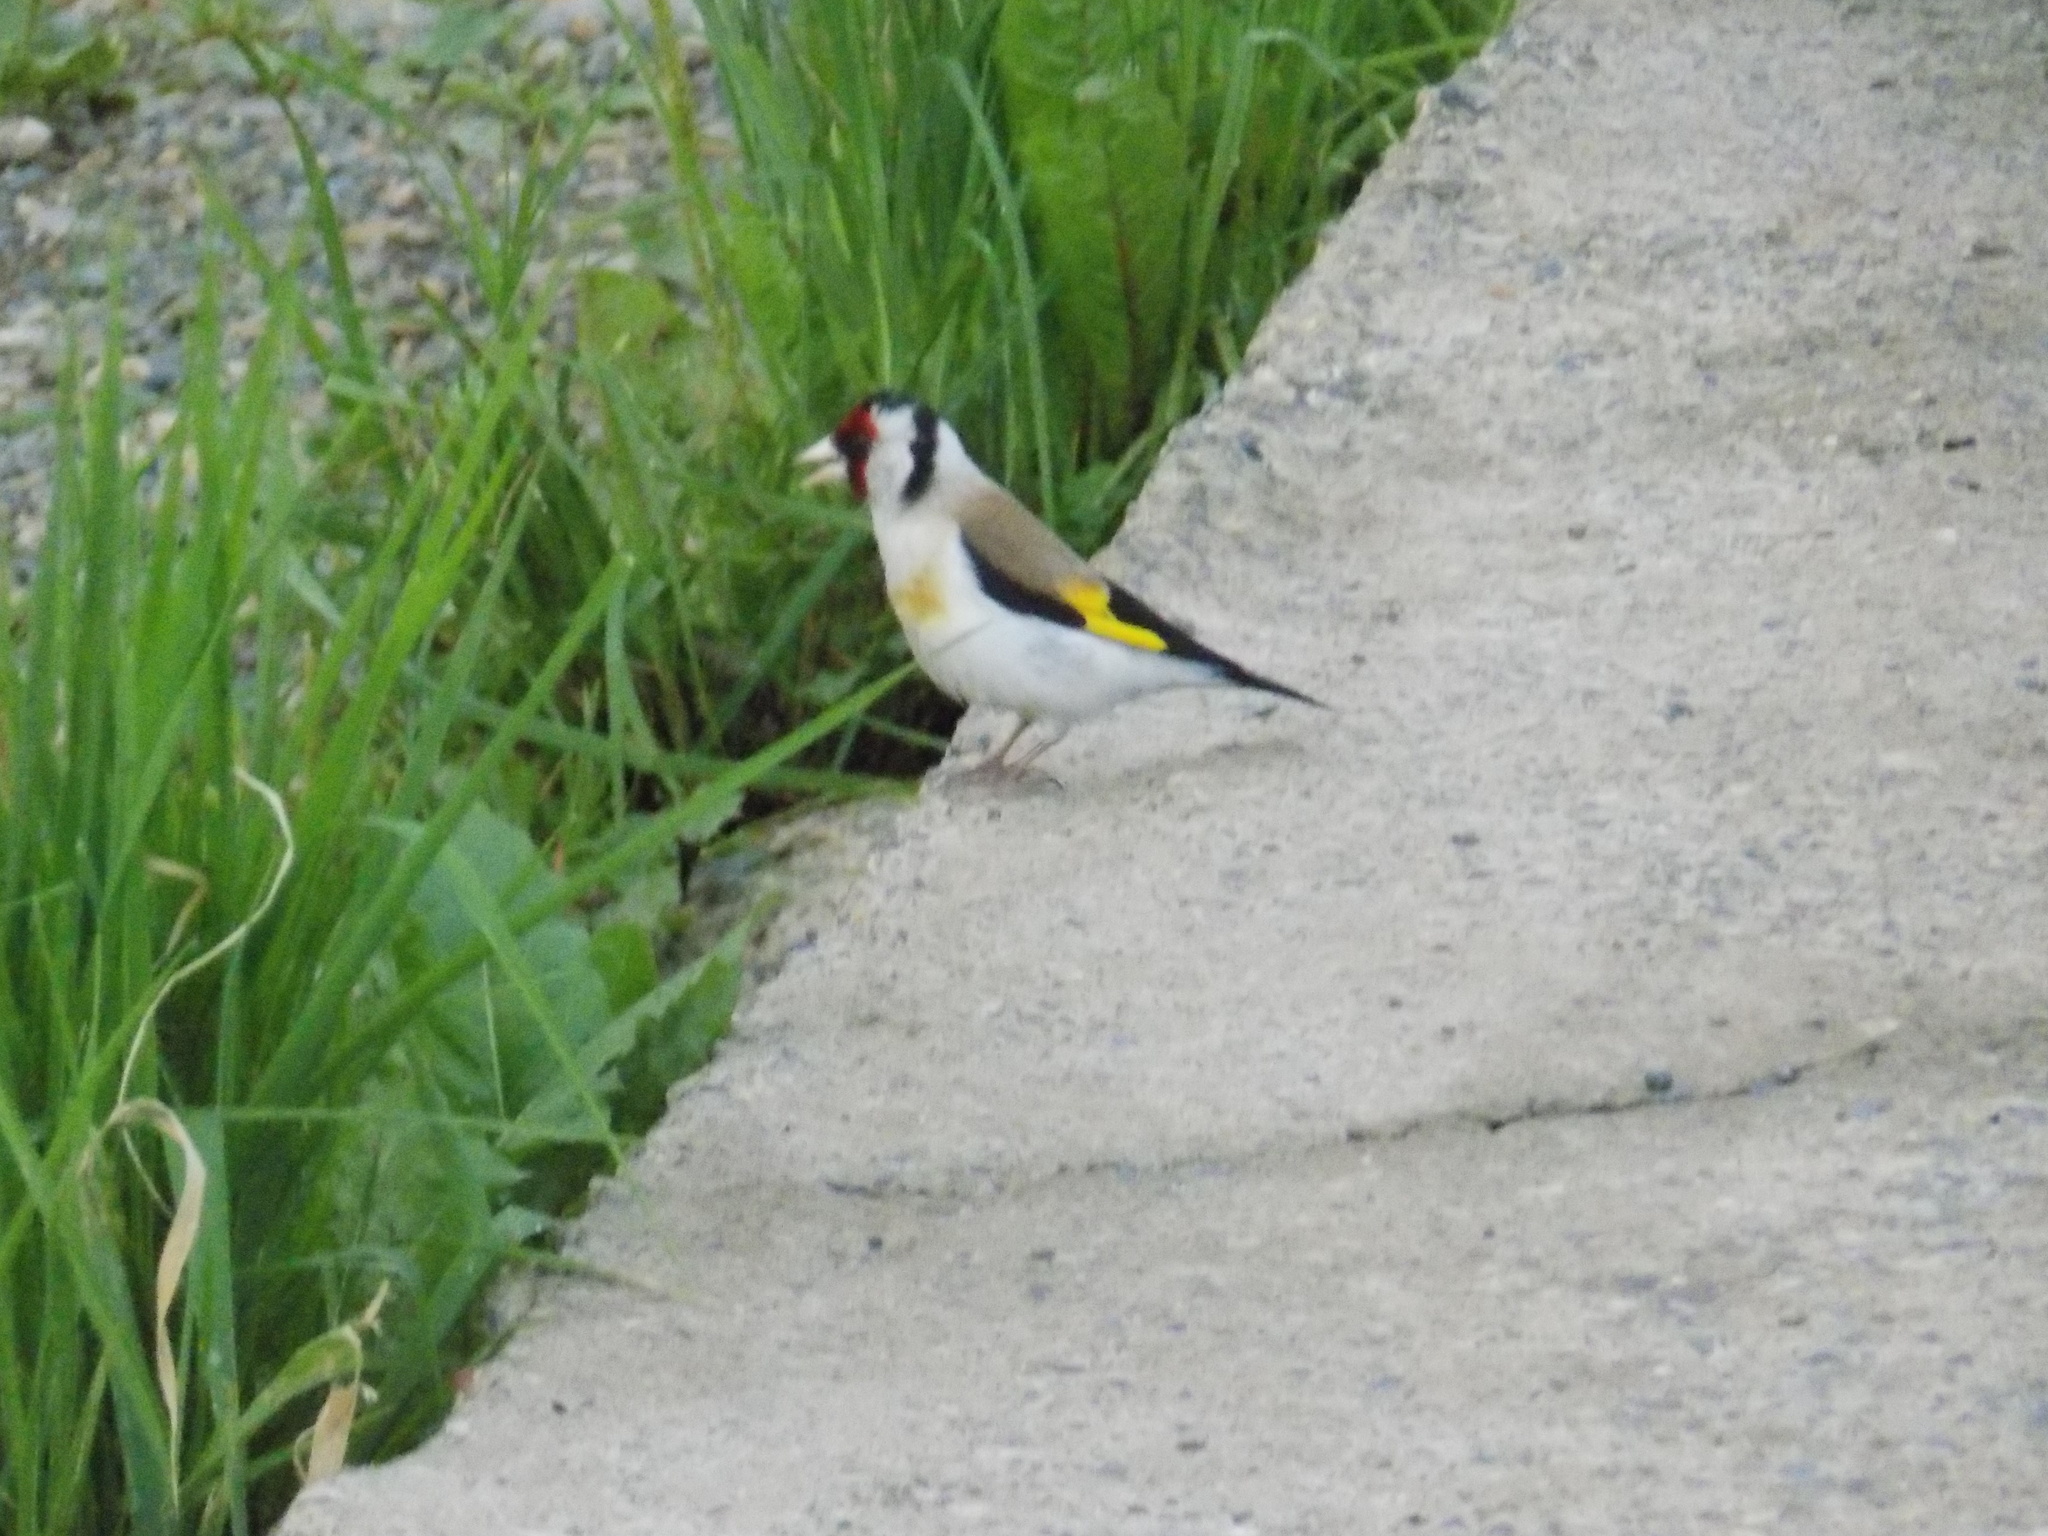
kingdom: Animalia
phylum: Chordata
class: Aves
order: Passeriformes
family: Fringillidae
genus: Carduelis
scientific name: Carduelis carduelis
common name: European goldfinch
